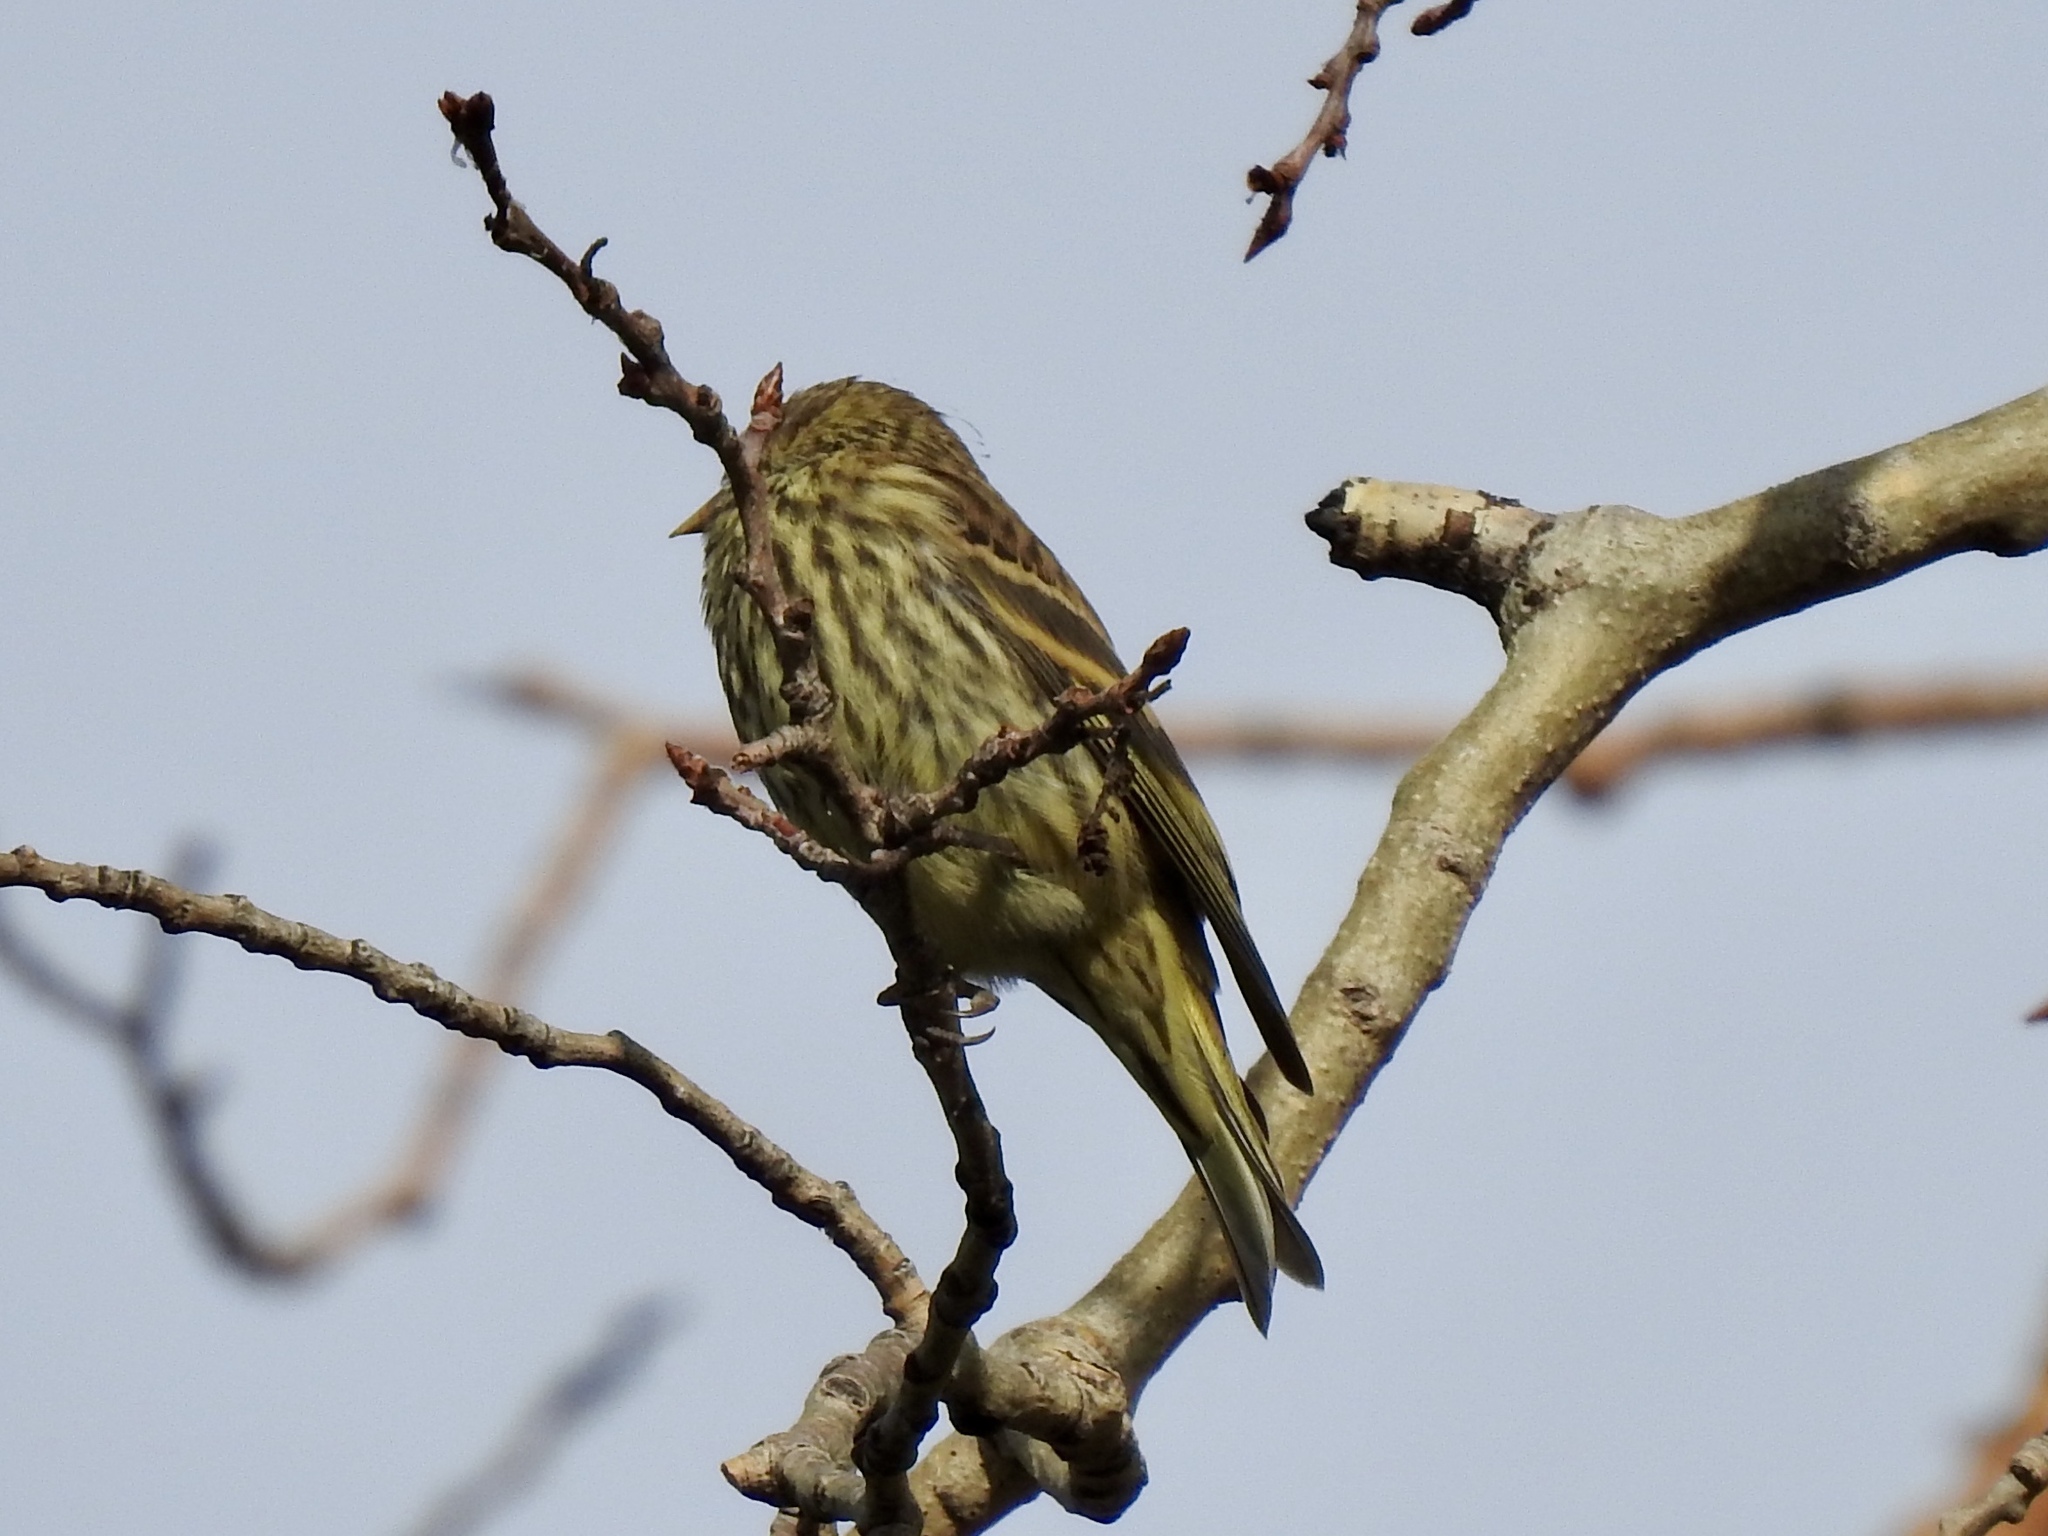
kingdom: Animalia
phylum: Chordata
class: Aves
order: Passeriformes
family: Fringillidae
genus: Spinus
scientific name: Spinus pinus
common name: Pine siskin
